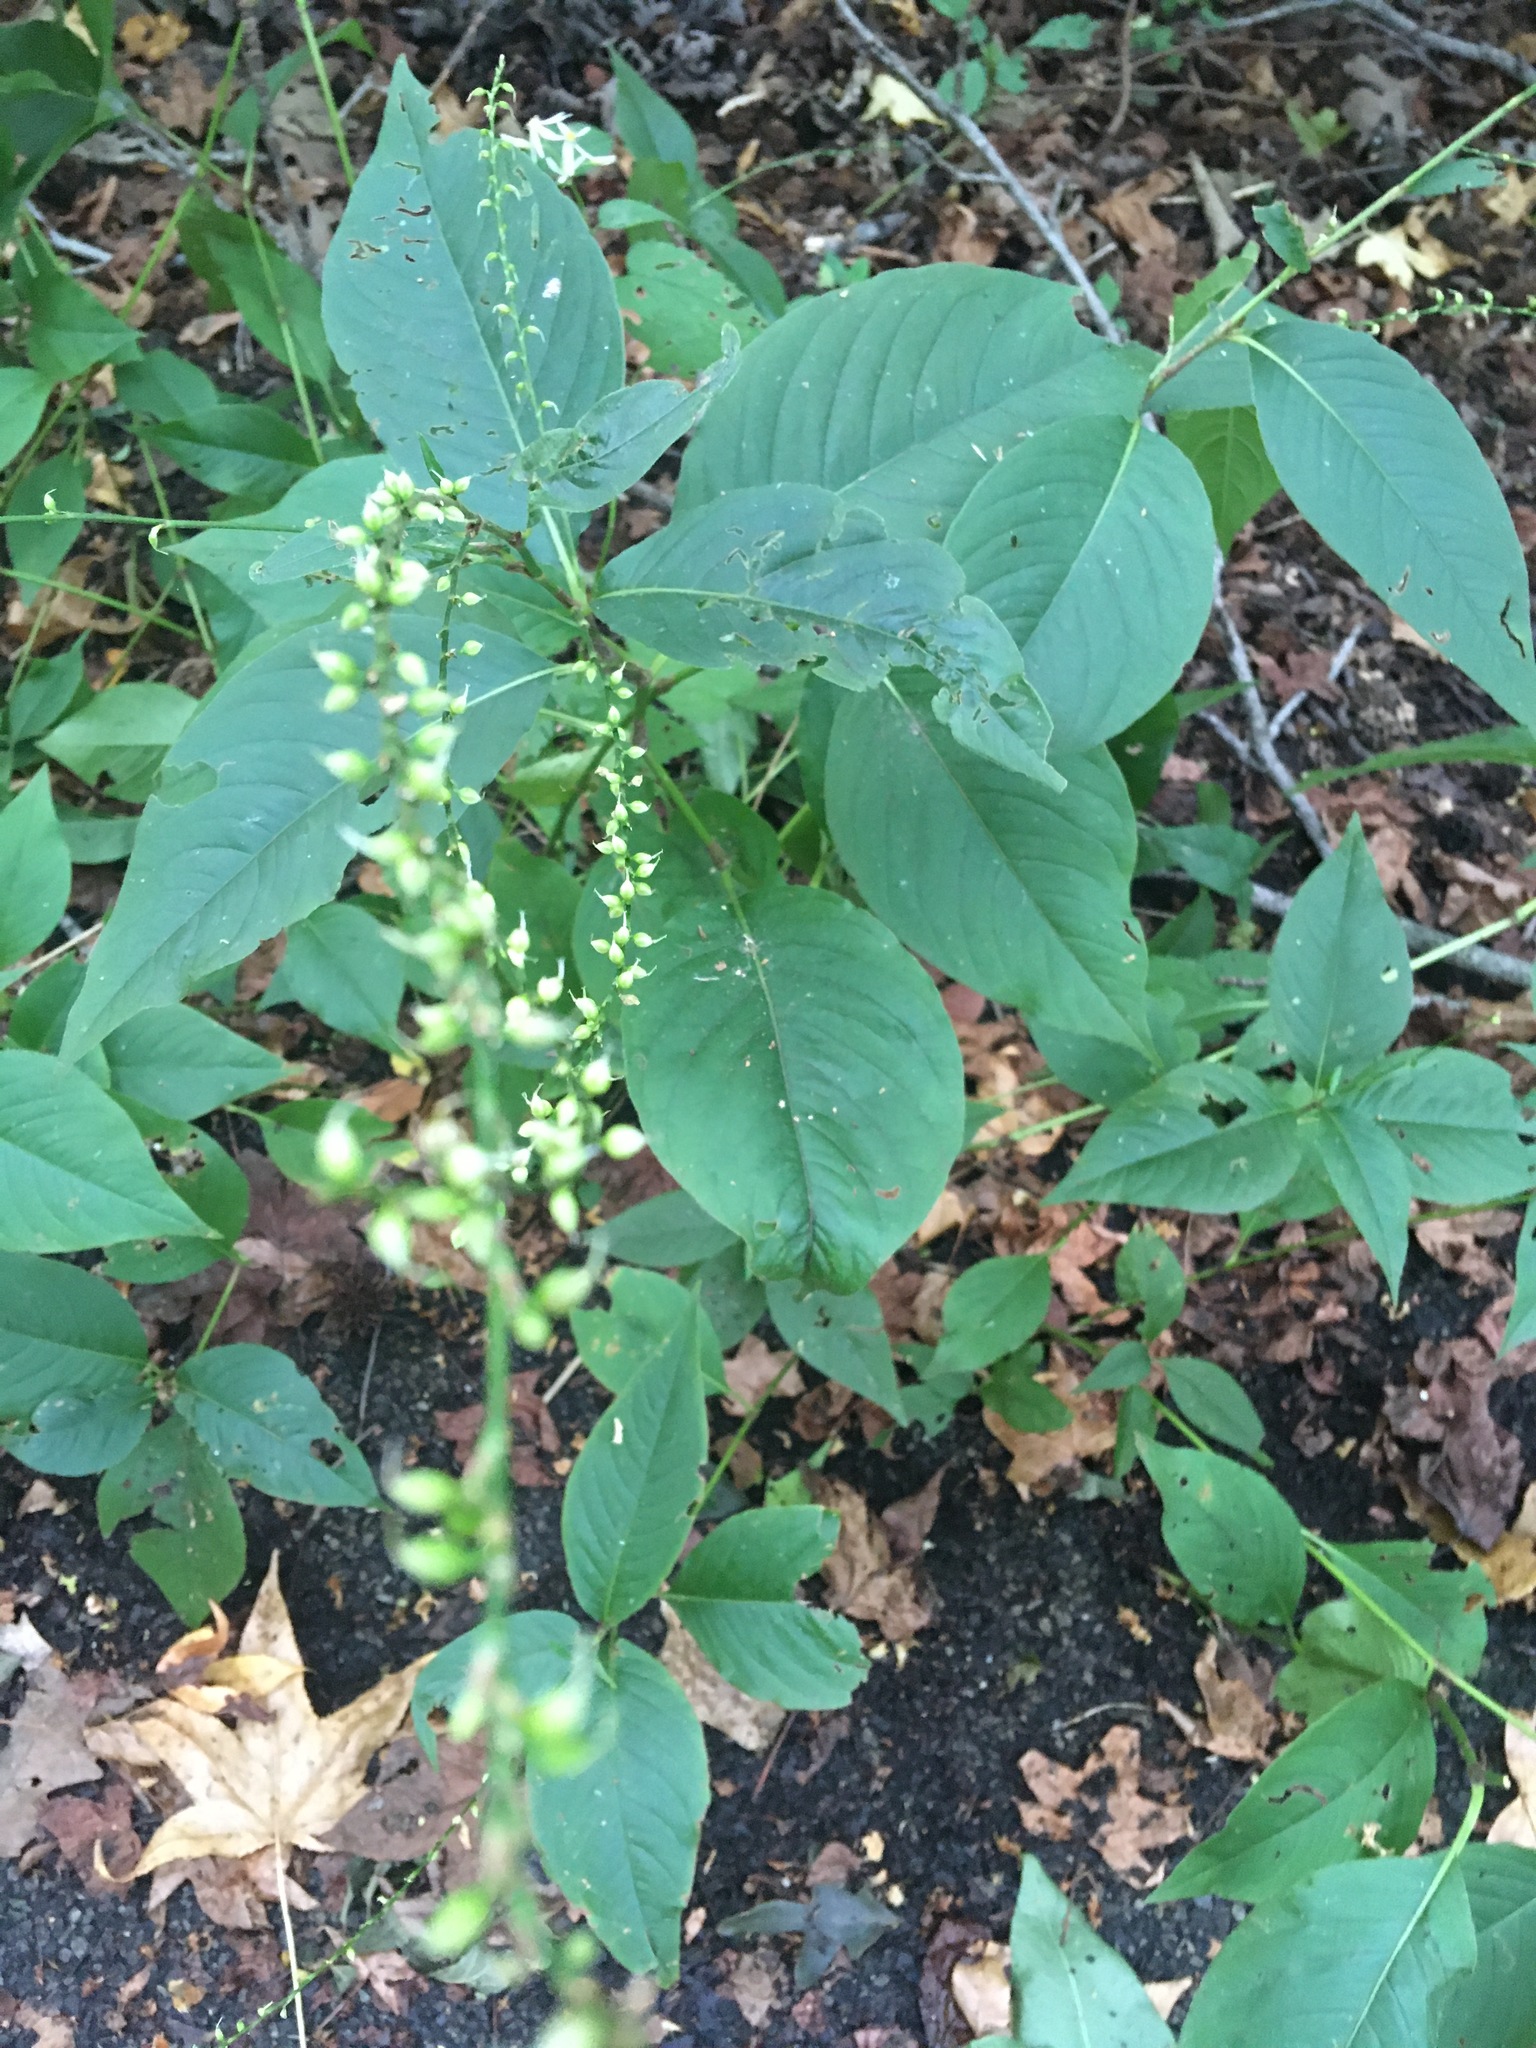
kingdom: Plantae
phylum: Tracheophyta
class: Magnoliopsida
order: Caryophyllales
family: Polygonaceae
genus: Persicaria
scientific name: Persicaria virginiana
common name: Jumpseed
